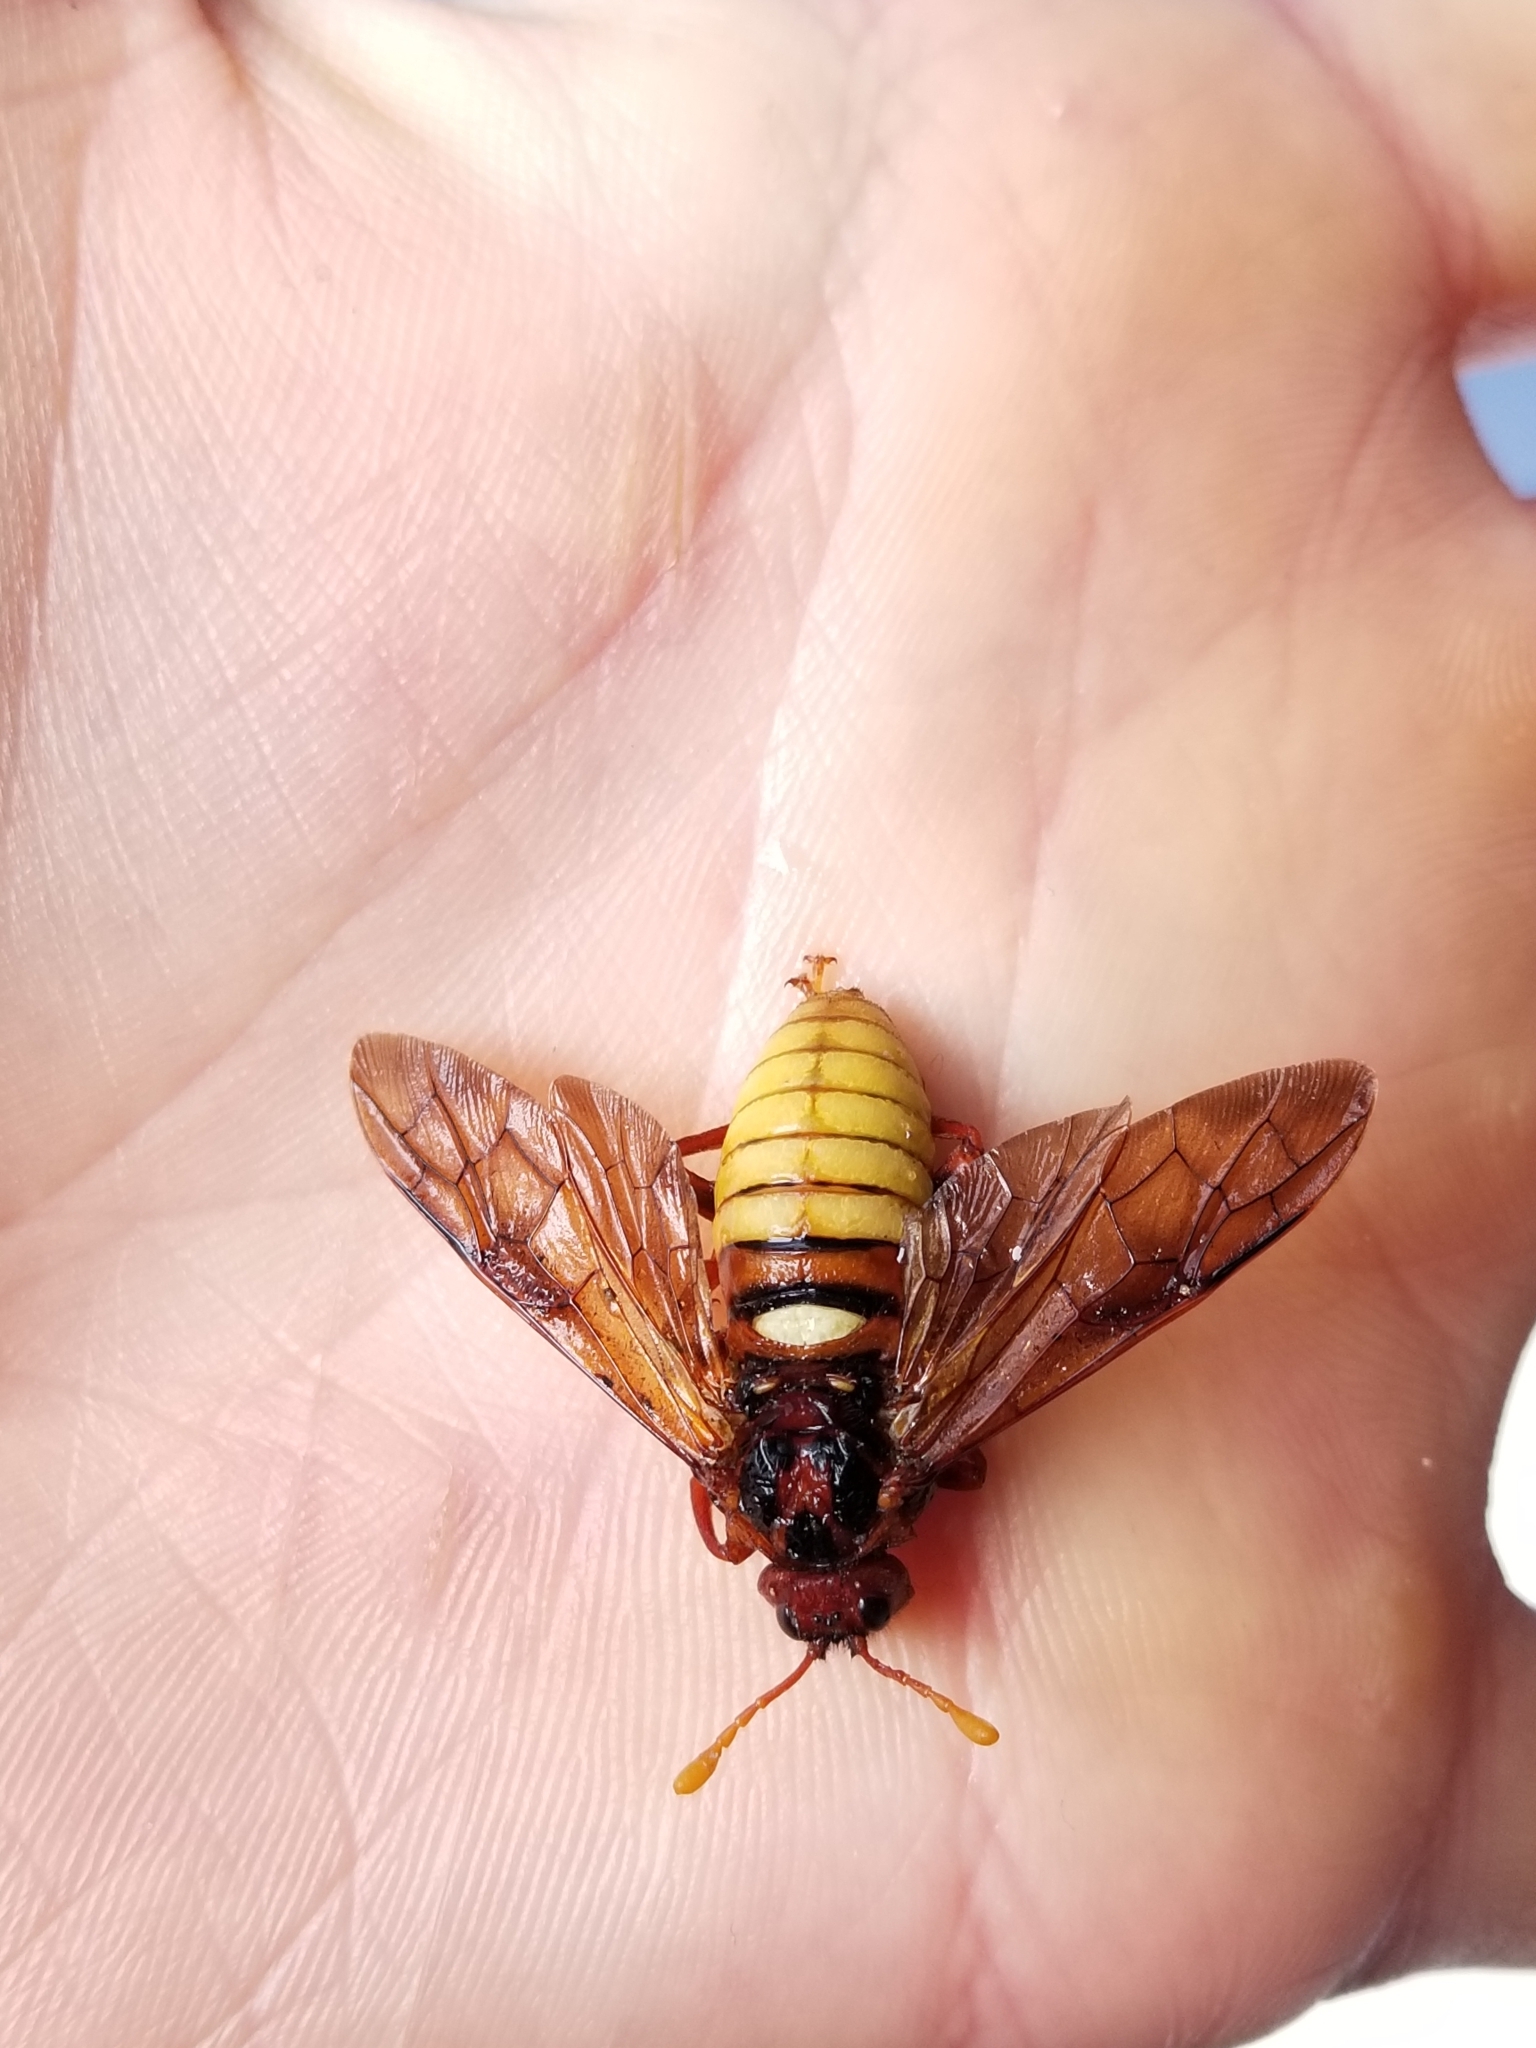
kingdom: Animalia
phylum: Arthropoda
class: Insecta
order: Hymenoptera
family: Cimbicidae
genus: Cimbex
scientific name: Cimbex
